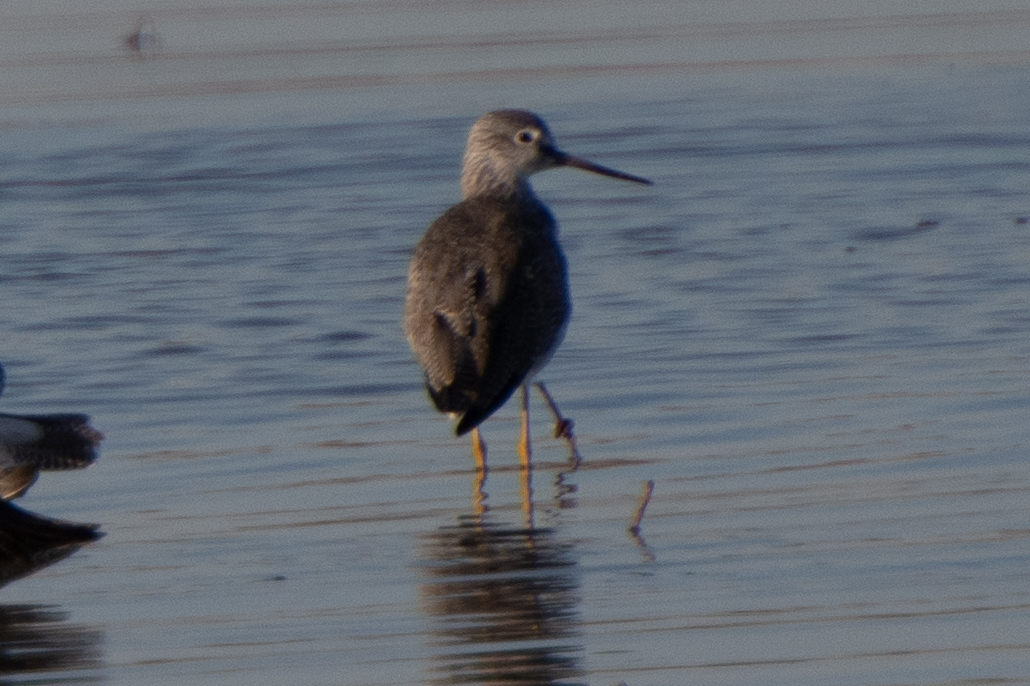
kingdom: Animalia
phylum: Chordata
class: Aves
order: Charadriiformes
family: Scolopacidae
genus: Tringa
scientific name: Tringa melanoleuca
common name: Greater yellowlegs
